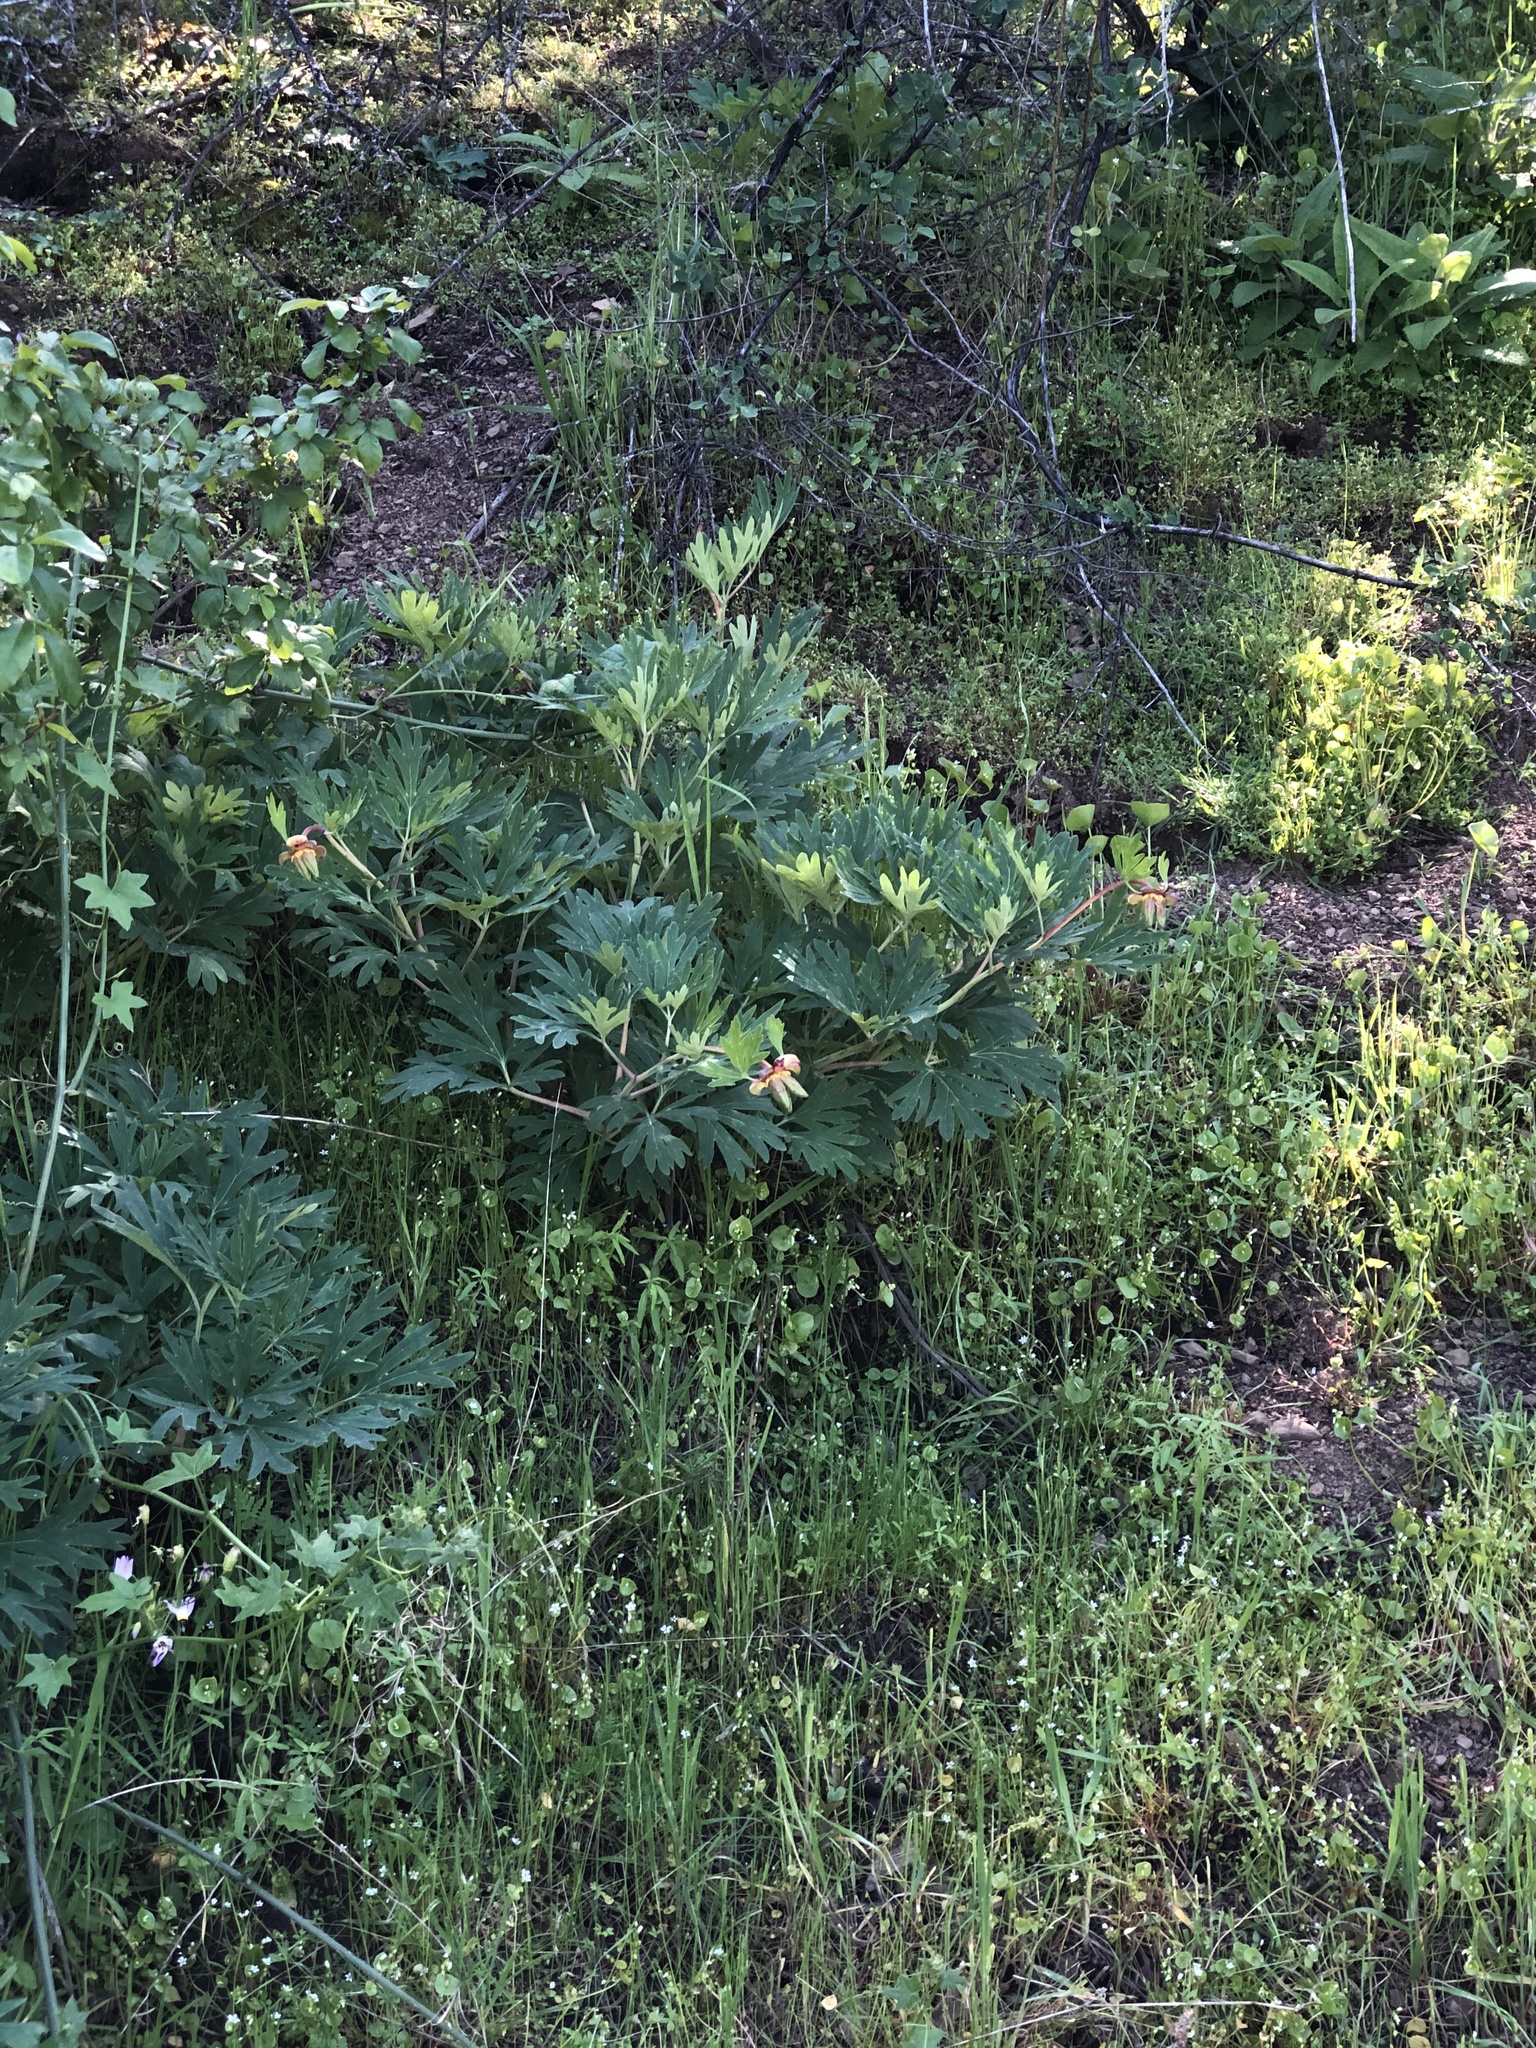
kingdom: Plantae
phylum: Tracheophyta
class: Magnoliopsida
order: Saxifragales
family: Paeoniaceae
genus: Paeonia
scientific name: Paeonia californica
